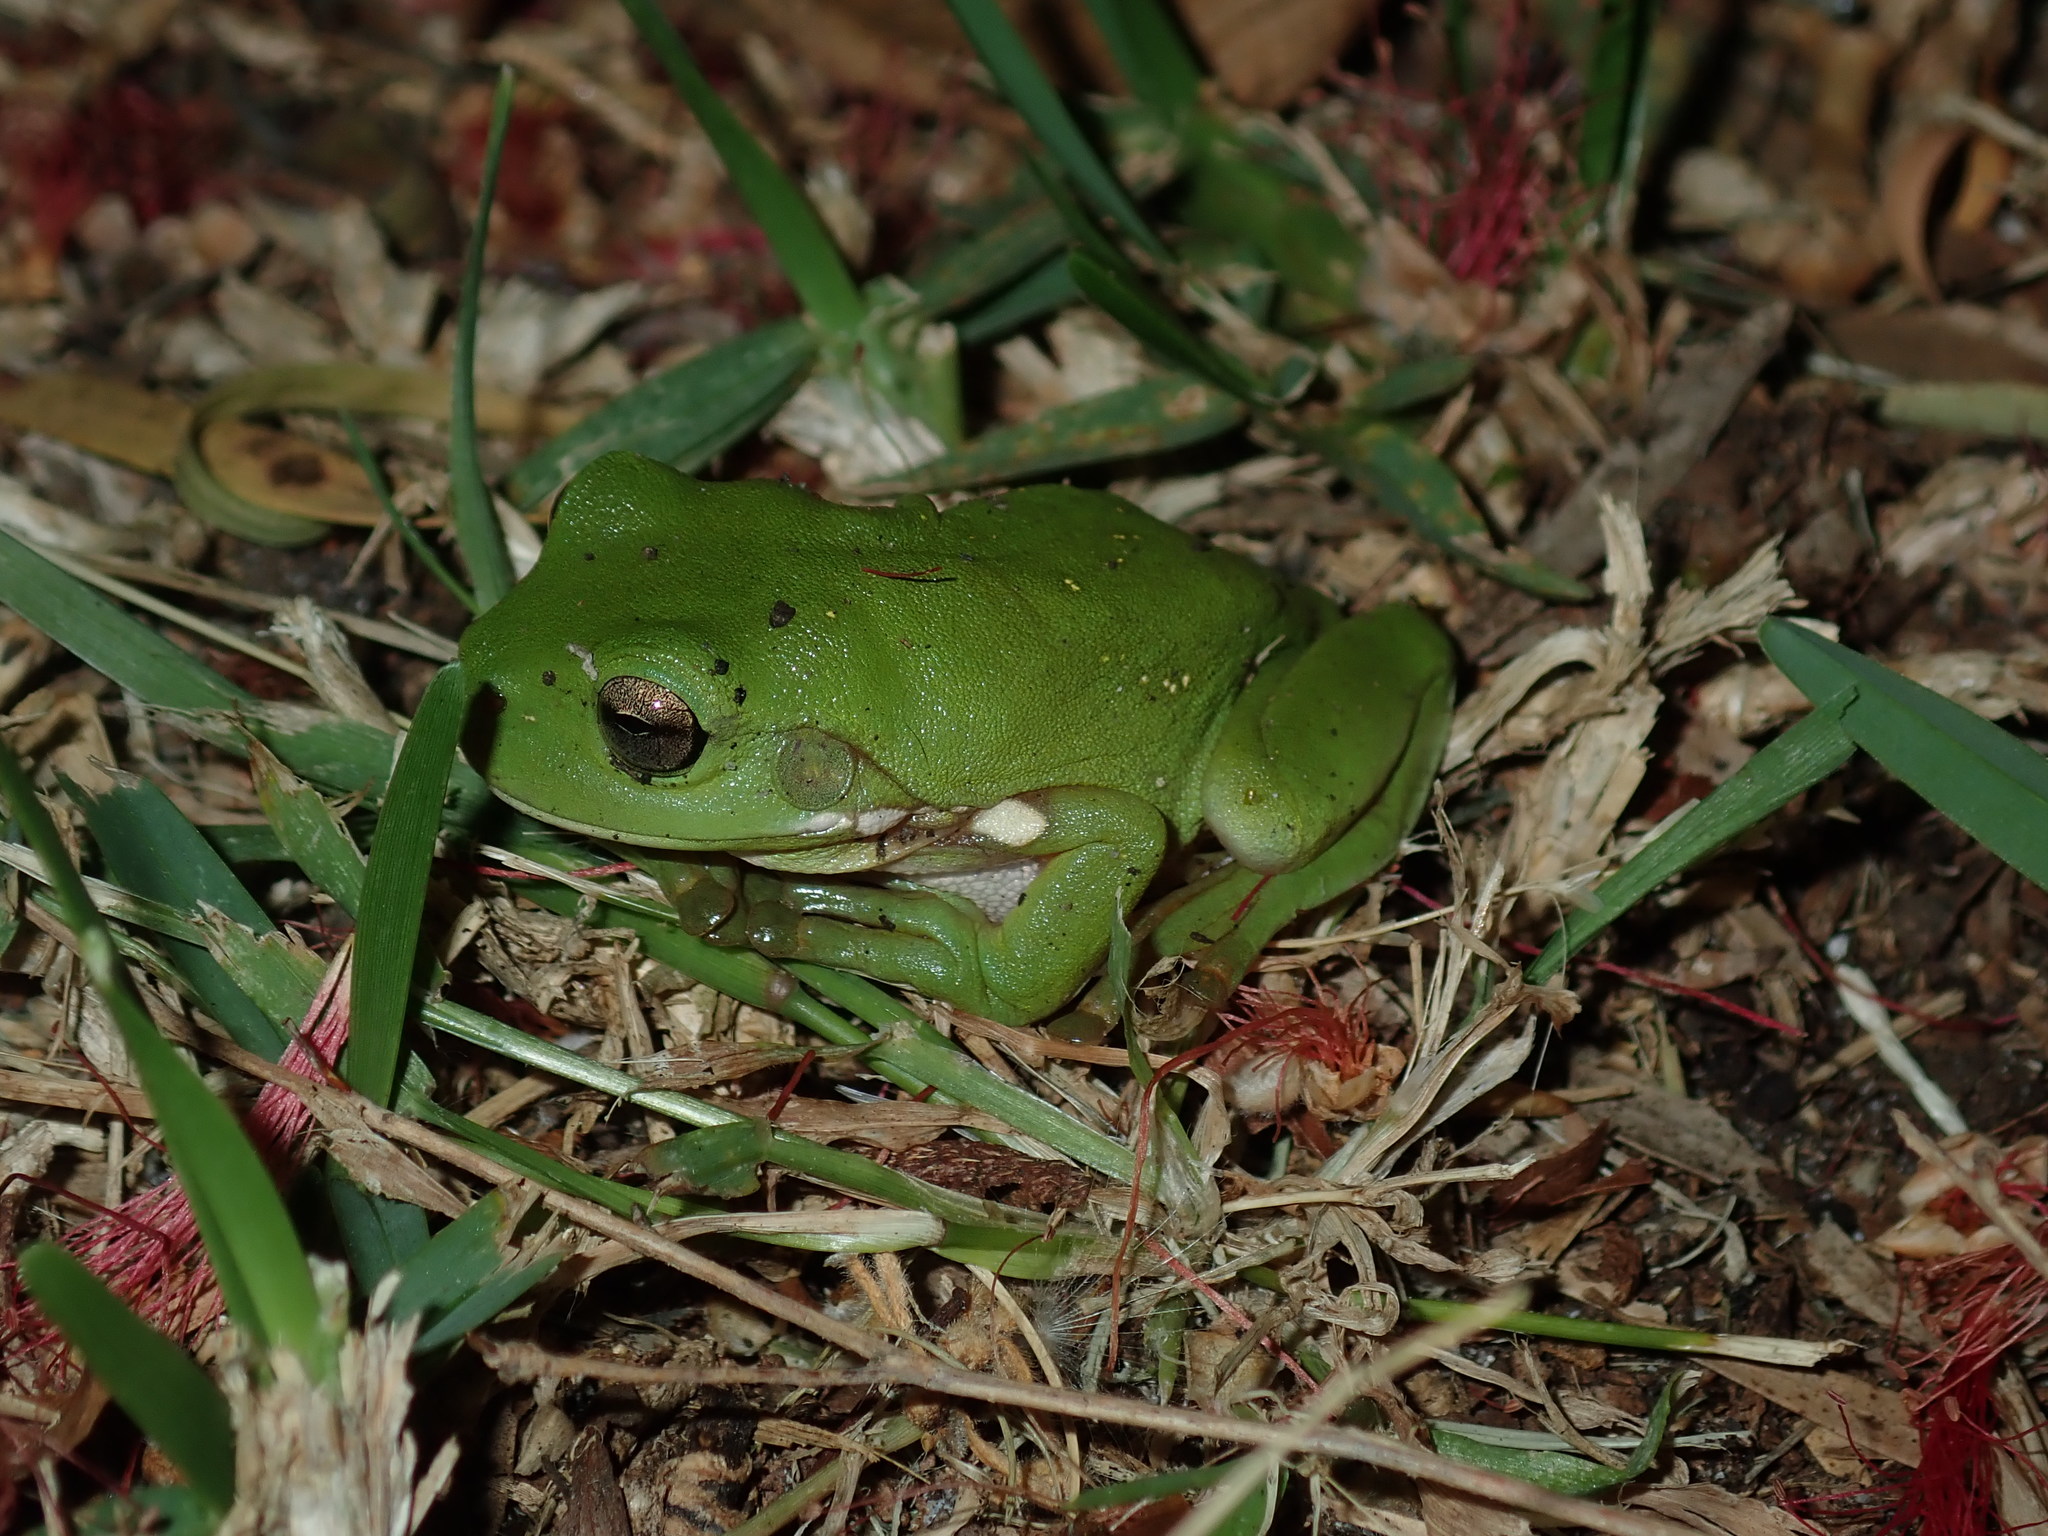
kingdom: Animalia
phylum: Chordata
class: Amphibia
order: Anura
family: Pelodryadidae
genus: Ranoidea
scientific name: Ranoidea caerulea
